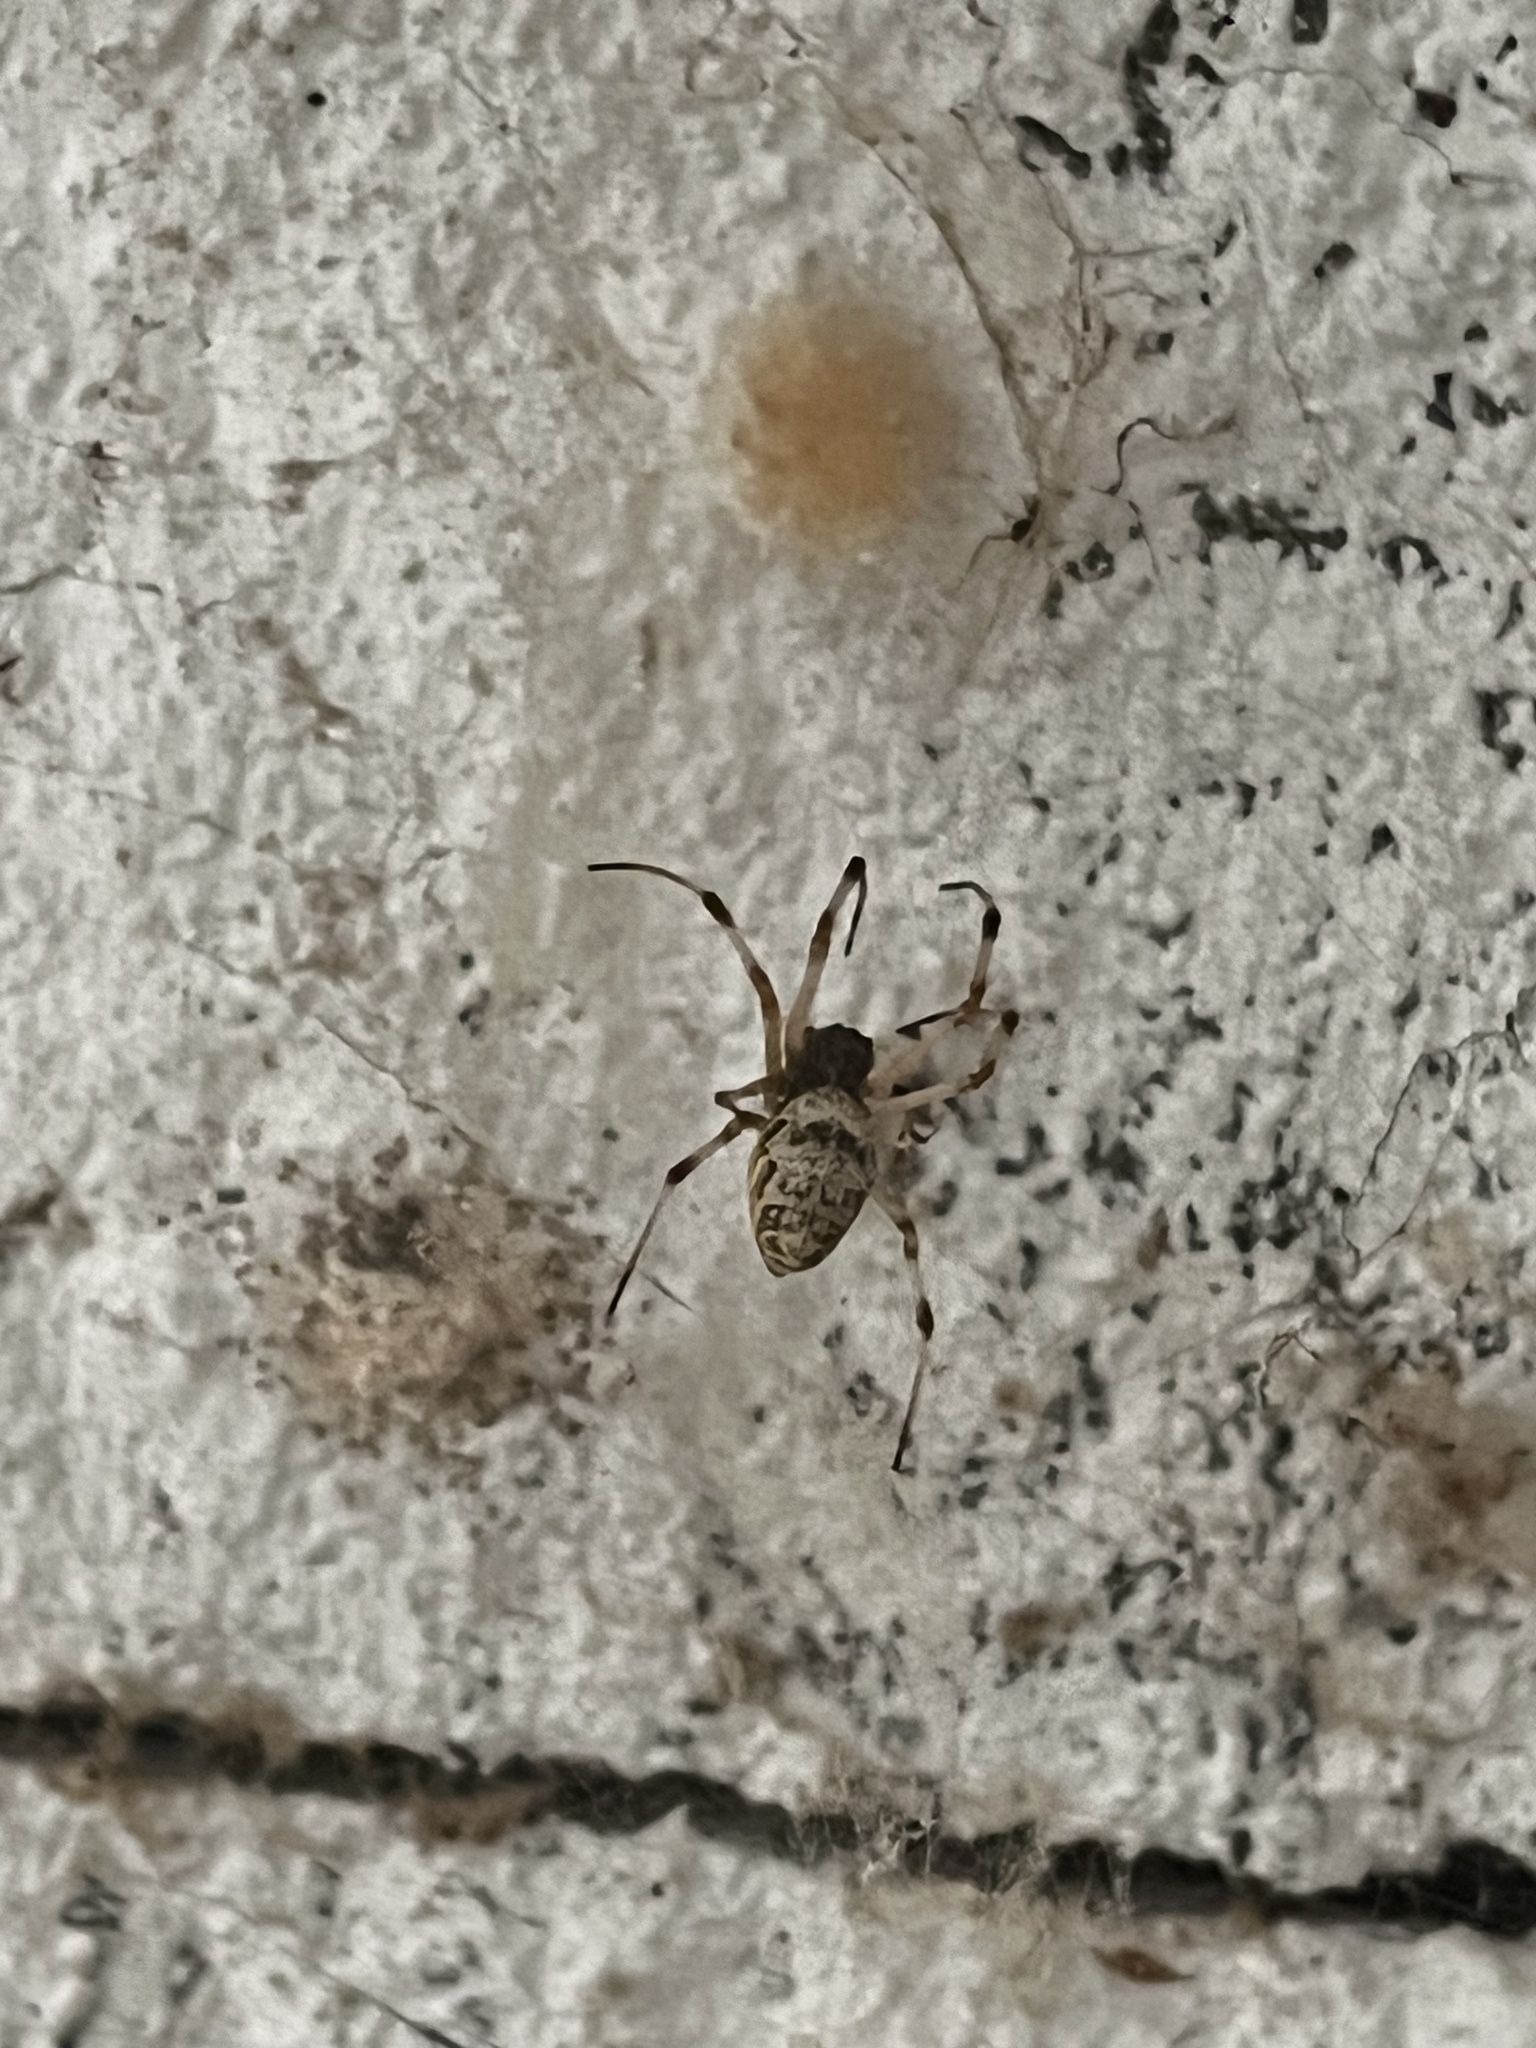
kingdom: Animalia
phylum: Arthropoda
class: Arachnida
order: Araneae
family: Araneidae
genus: Nephilingis
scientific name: Nephilingis cruentata
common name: African hermit spider
